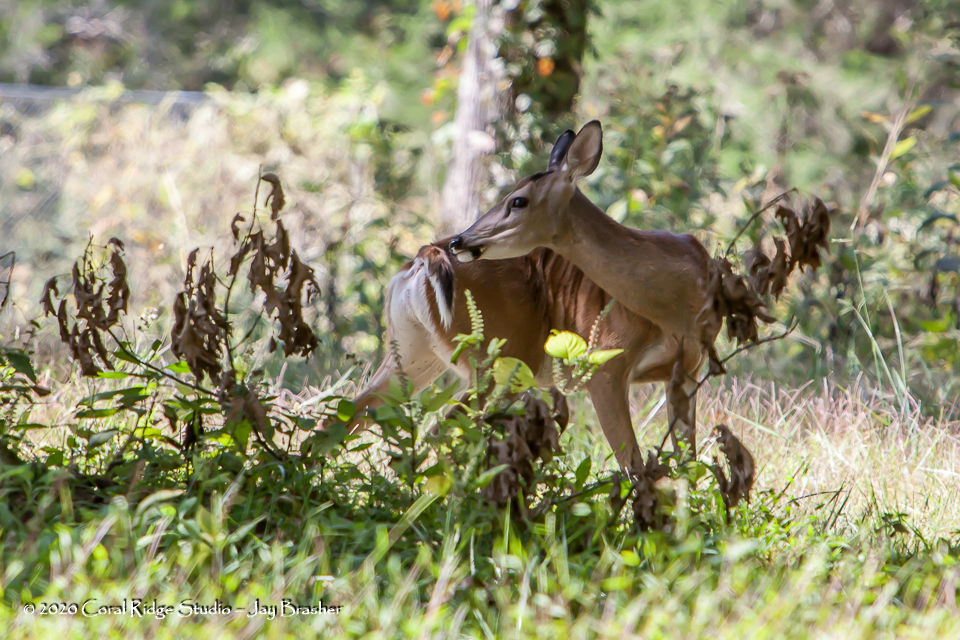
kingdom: Animalia
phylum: Chordata
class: Mammalia
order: Artiodactyla
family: Cervidae
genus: Odocoileus
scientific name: Odocoileus virginianus
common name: White-tailed deer
